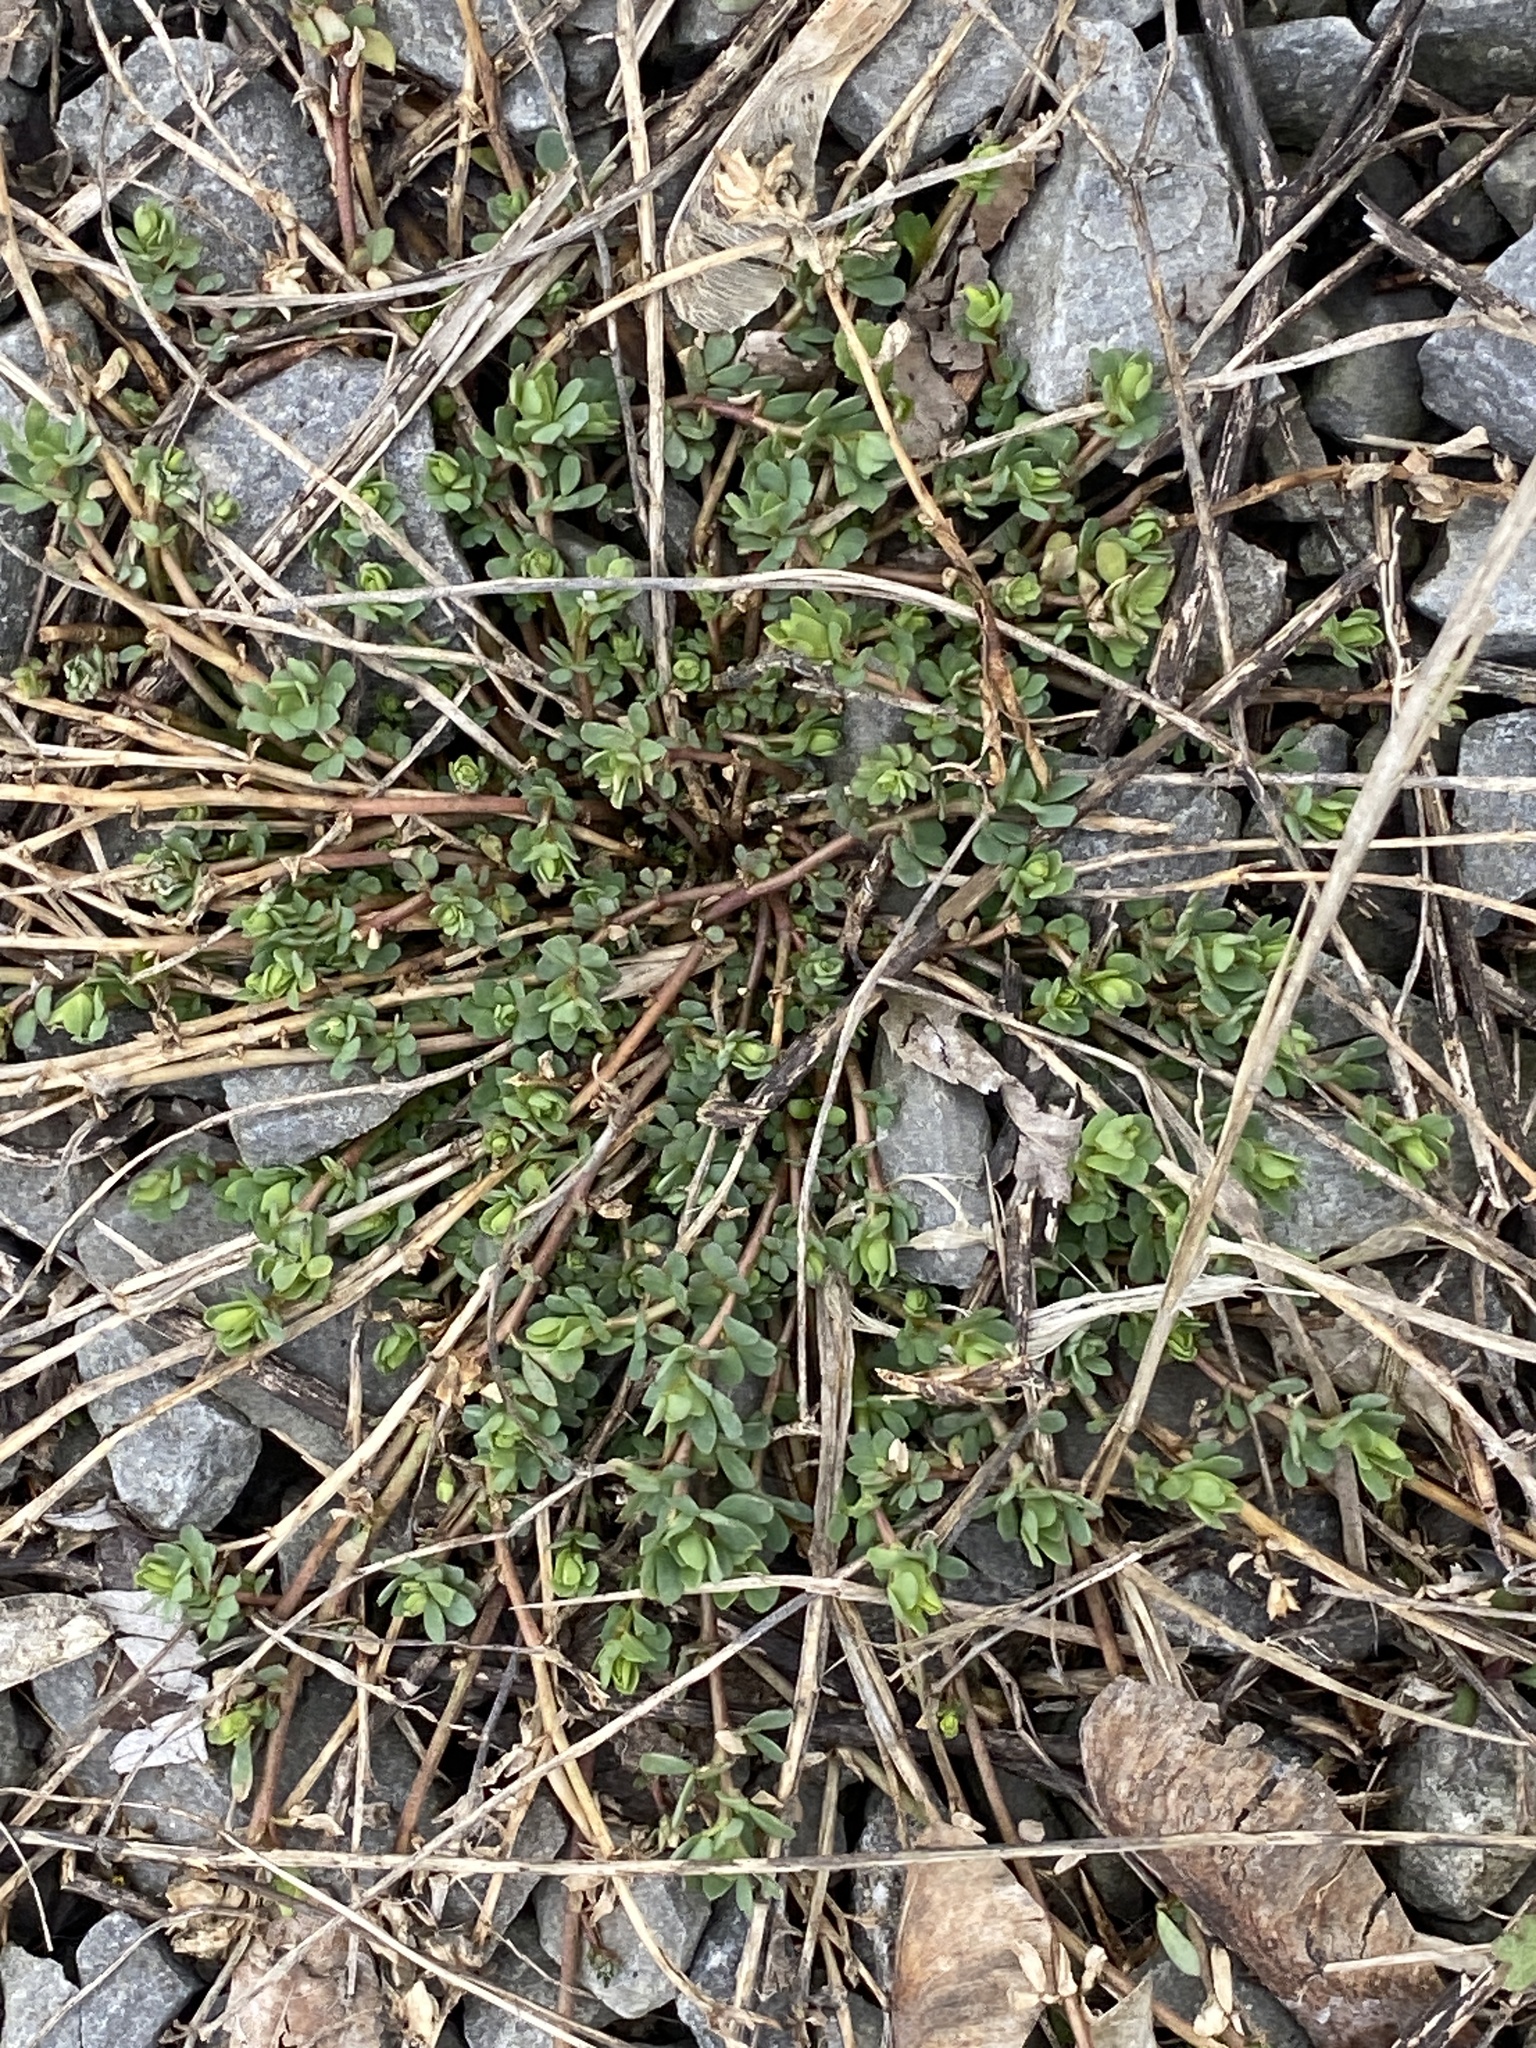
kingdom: Plantae
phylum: Tracheophyta
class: Magnoliopsida
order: Fabales
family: Fabaceae
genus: Lotus
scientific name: Lotus corniculatus
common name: Common bird's-foot-trefoil
